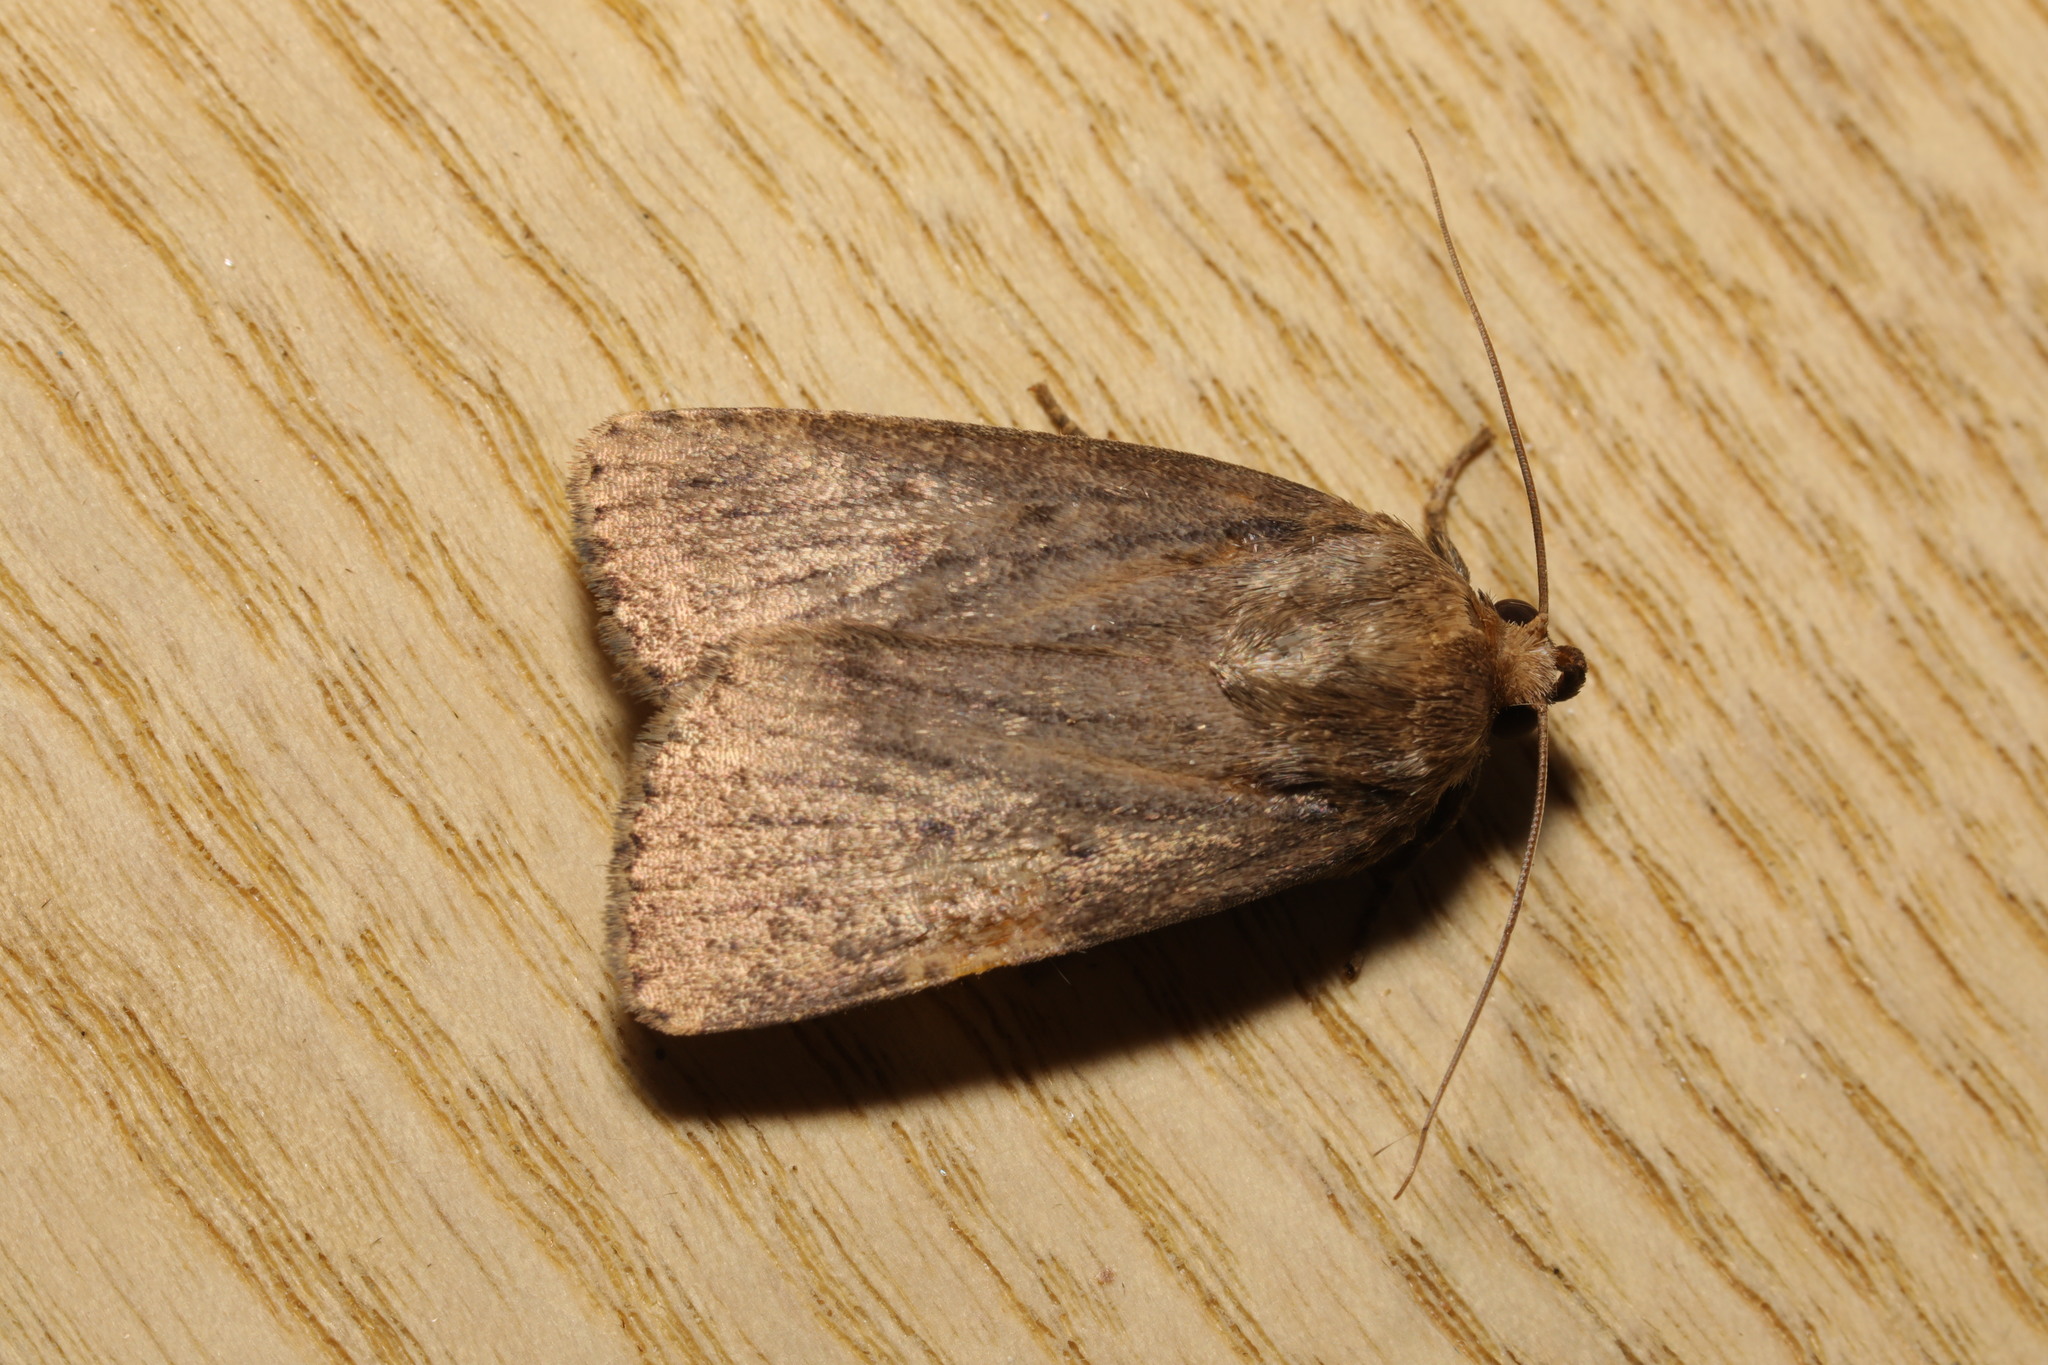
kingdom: Animalia
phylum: Arthropoda
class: Insecta
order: Lepidoptera
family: Noctuidae
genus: Amphipyra
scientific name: Amphipyra tragopoginis
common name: Mouse moth
